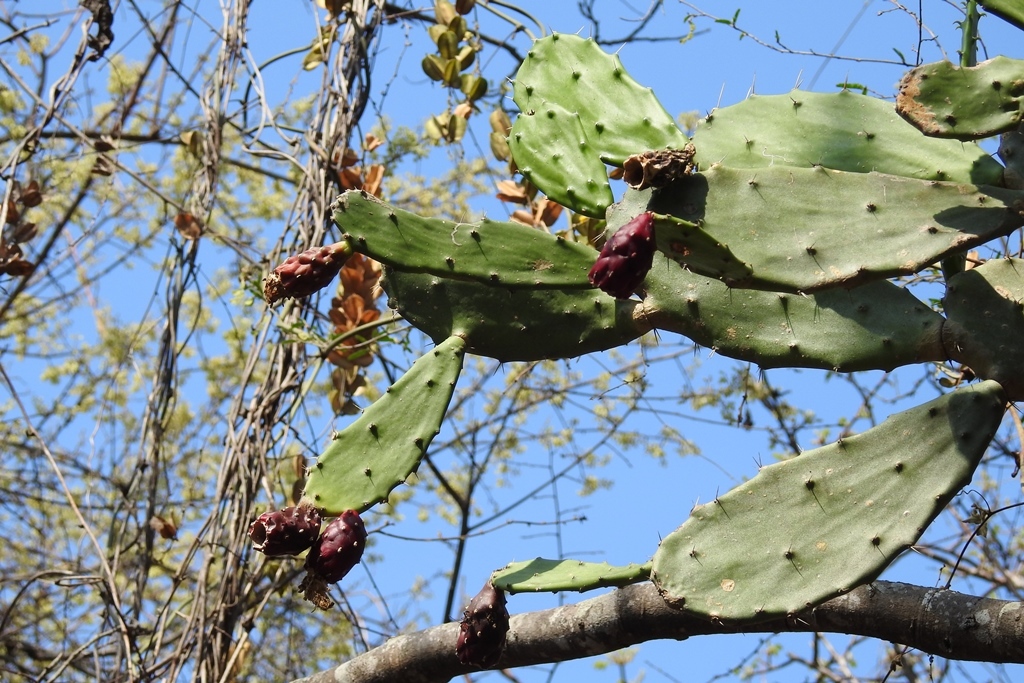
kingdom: Plantae
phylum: Tracheophyta
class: Magnoliopsida
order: Caryophyllales
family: Cactaceae
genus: Opuntia
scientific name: Opuntia dejecta
